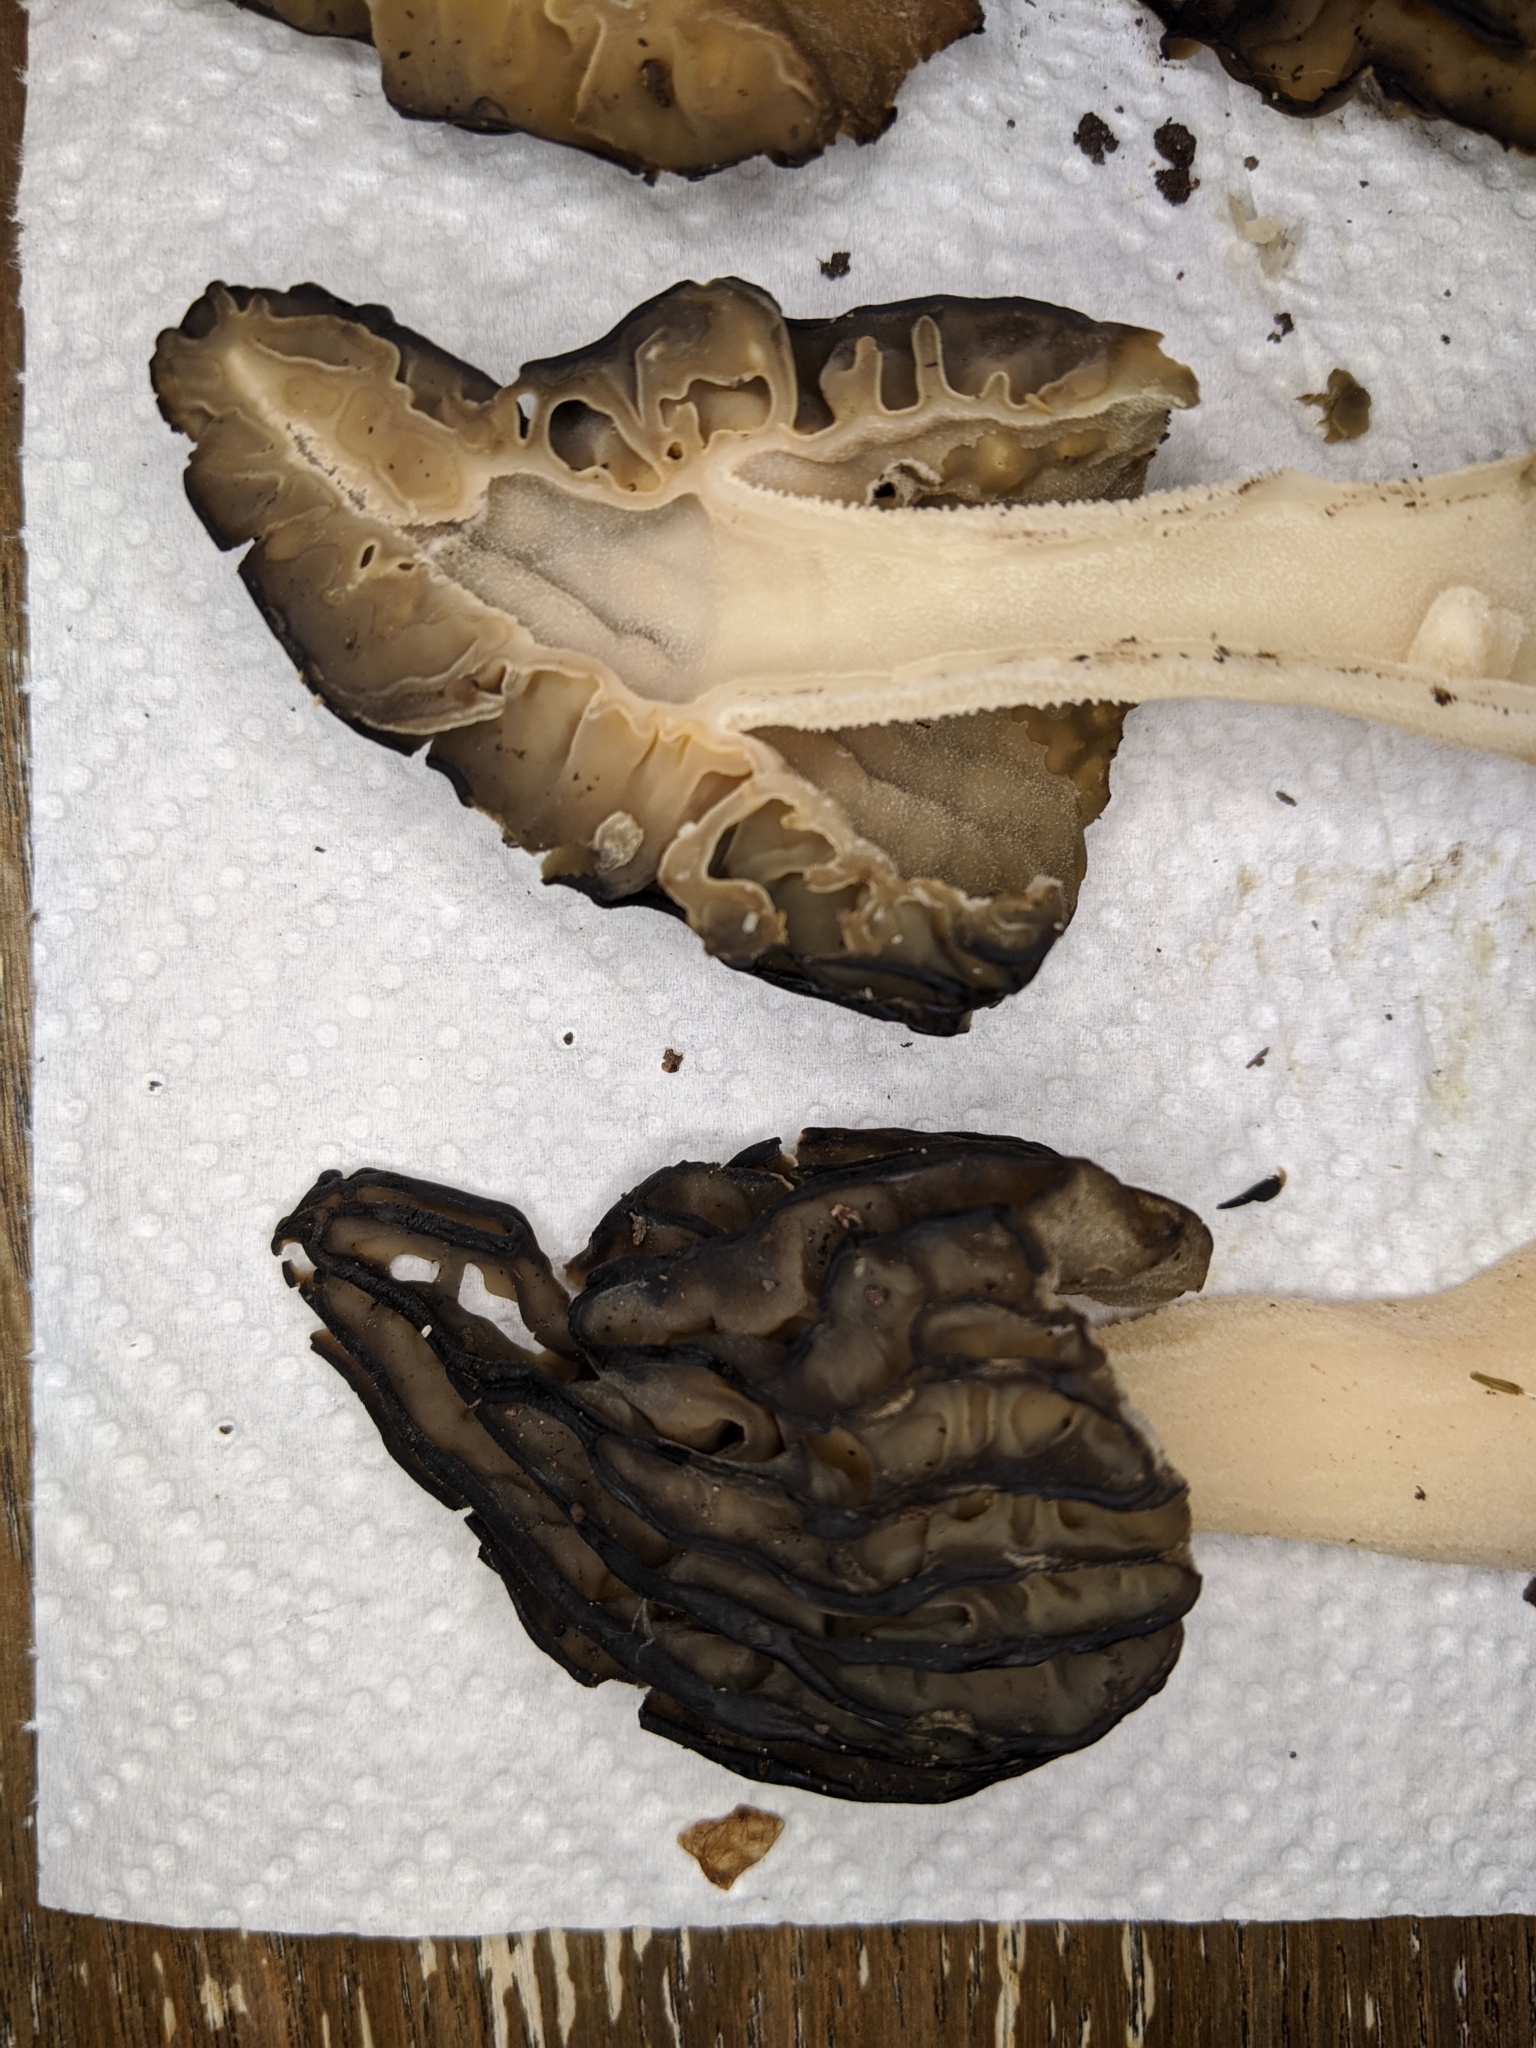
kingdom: Fungi
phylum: Ascomycota
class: Pezizomycetes
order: Pezizales
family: Morchellaceae
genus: Morchella
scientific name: Morchella punctipes
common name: Half-free morel
